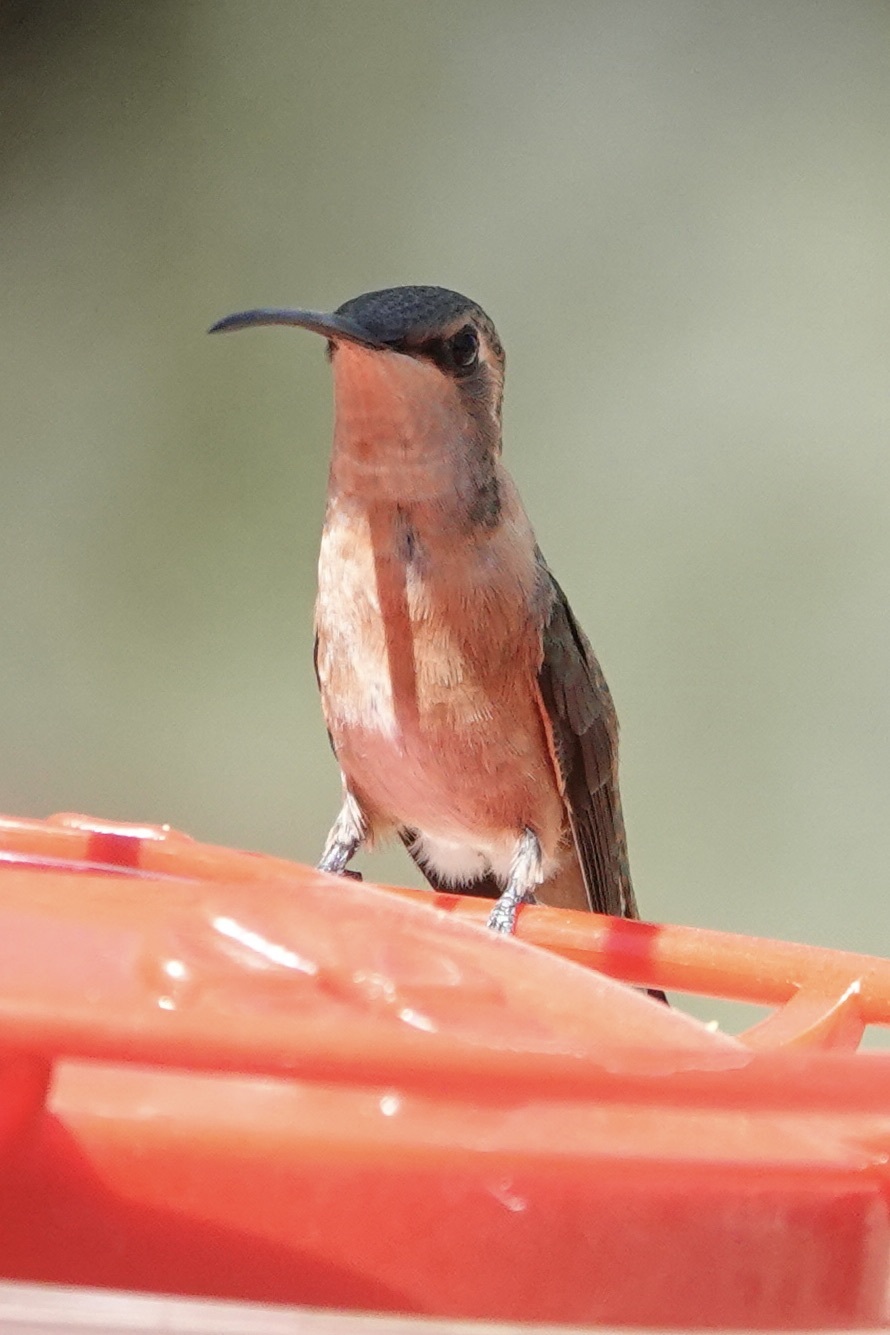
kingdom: Animalia
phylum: Chordata
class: Aves
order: Apodiformes
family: Trochilidae
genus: Calothorax
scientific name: Calothorax lucifer
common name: Lucifer sheartail
